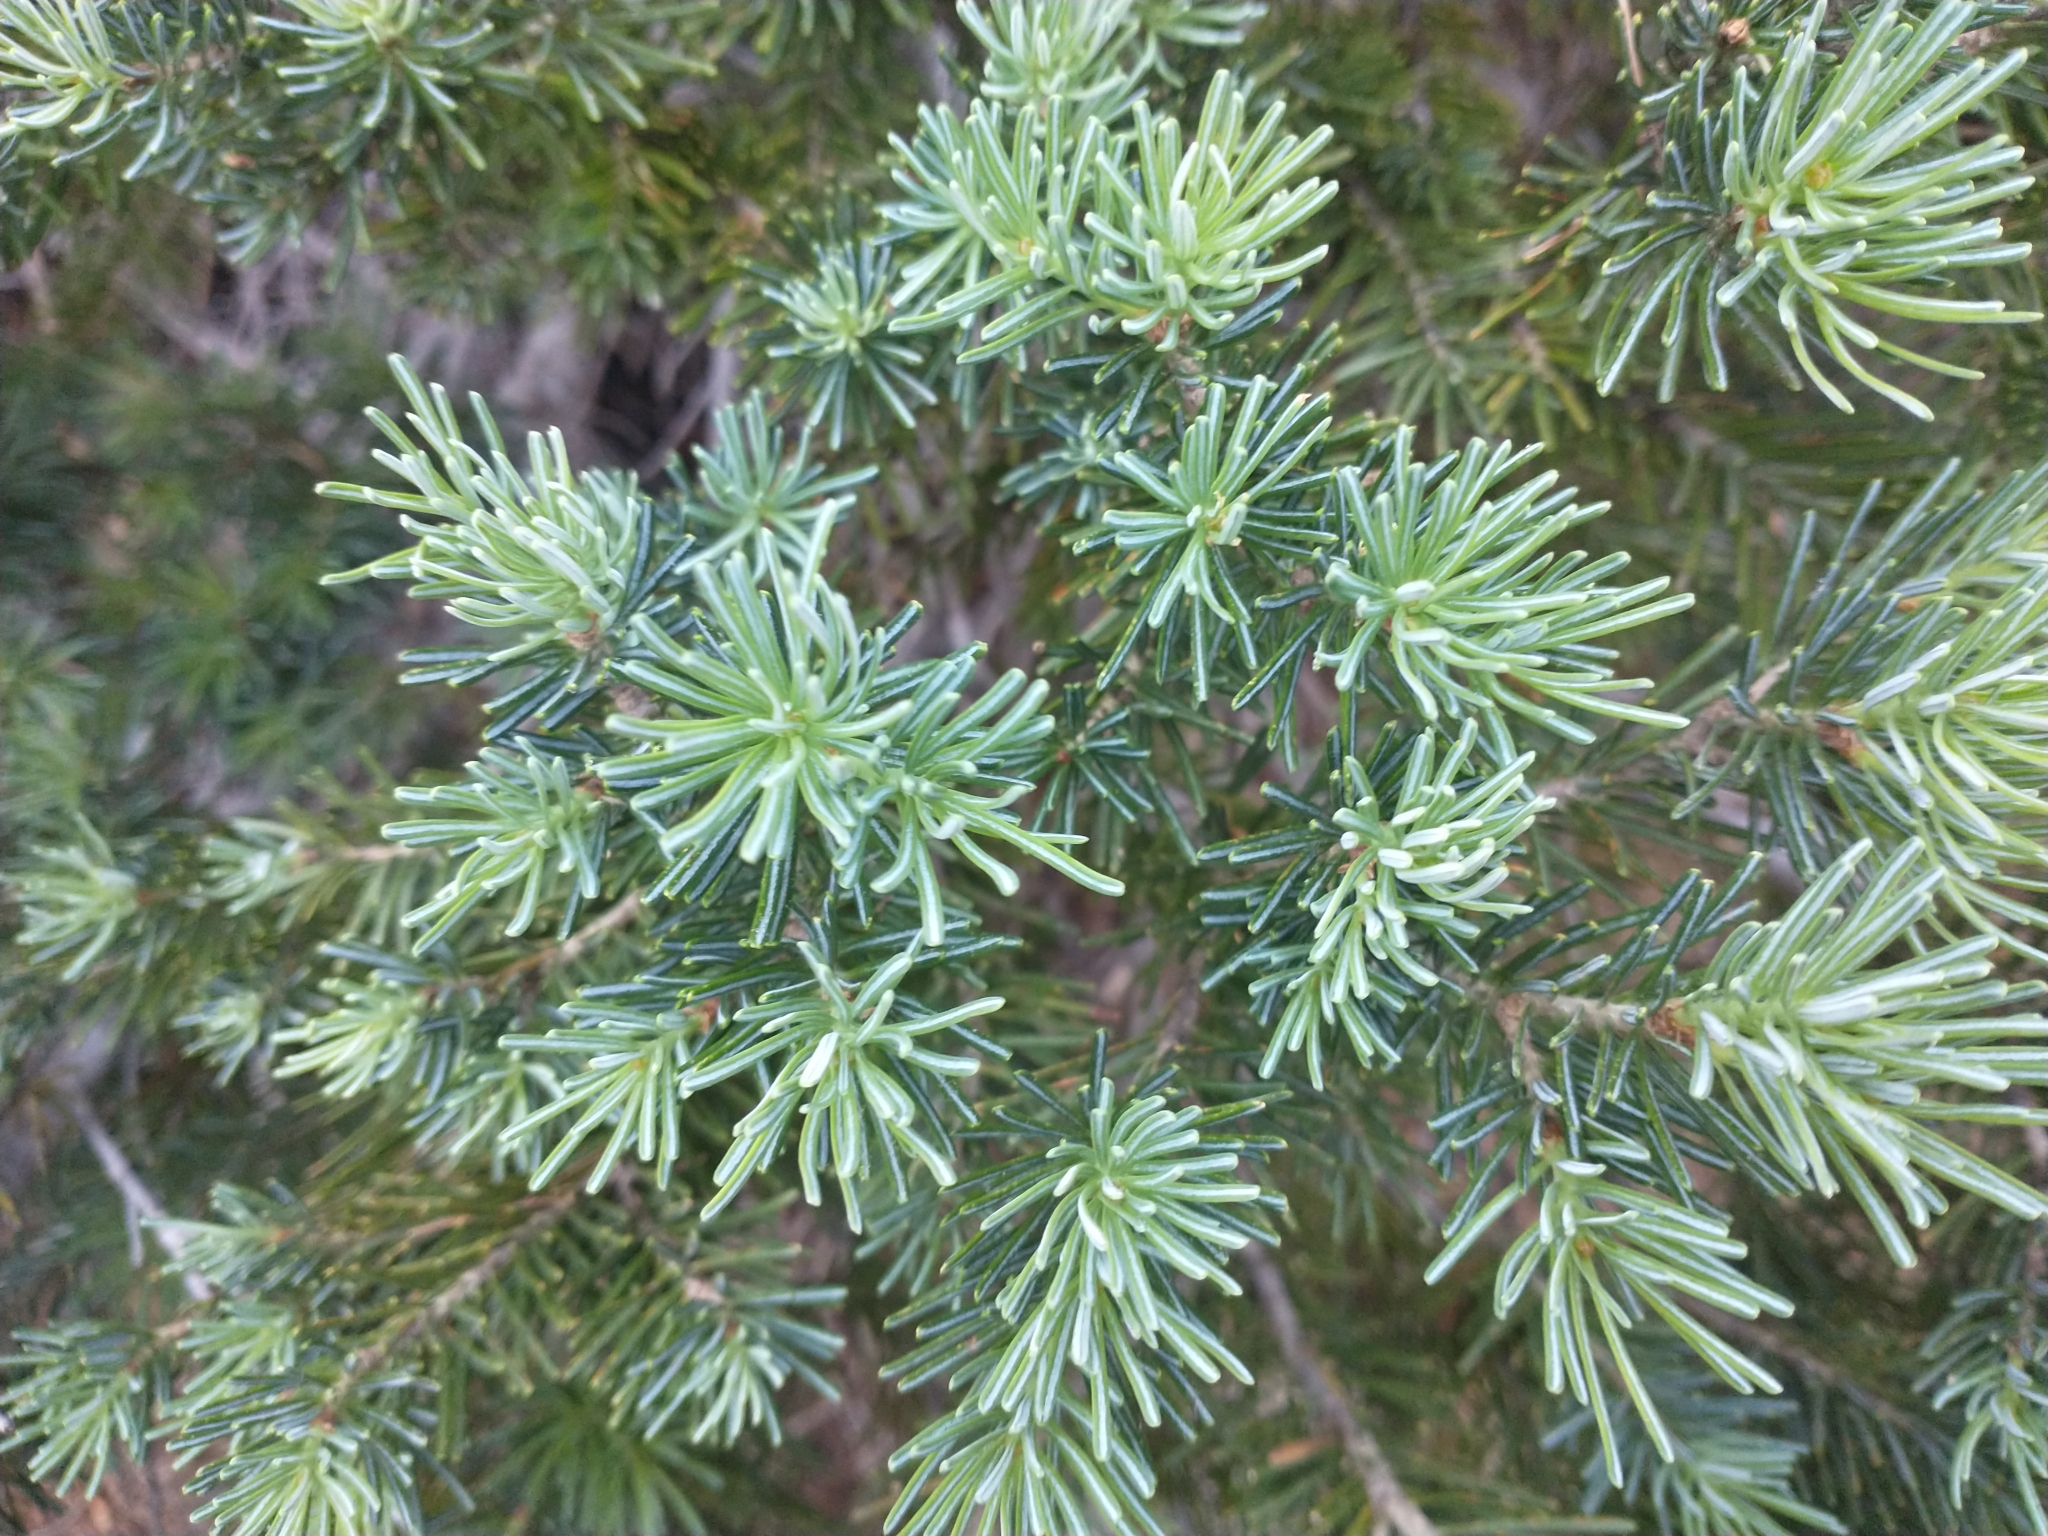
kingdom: Plantae
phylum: Tracheophyta
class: Pinopsida
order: Pinales
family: Pinaceae
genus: Abies
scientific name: Abies lasiocarpa
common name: Subalpine fir
